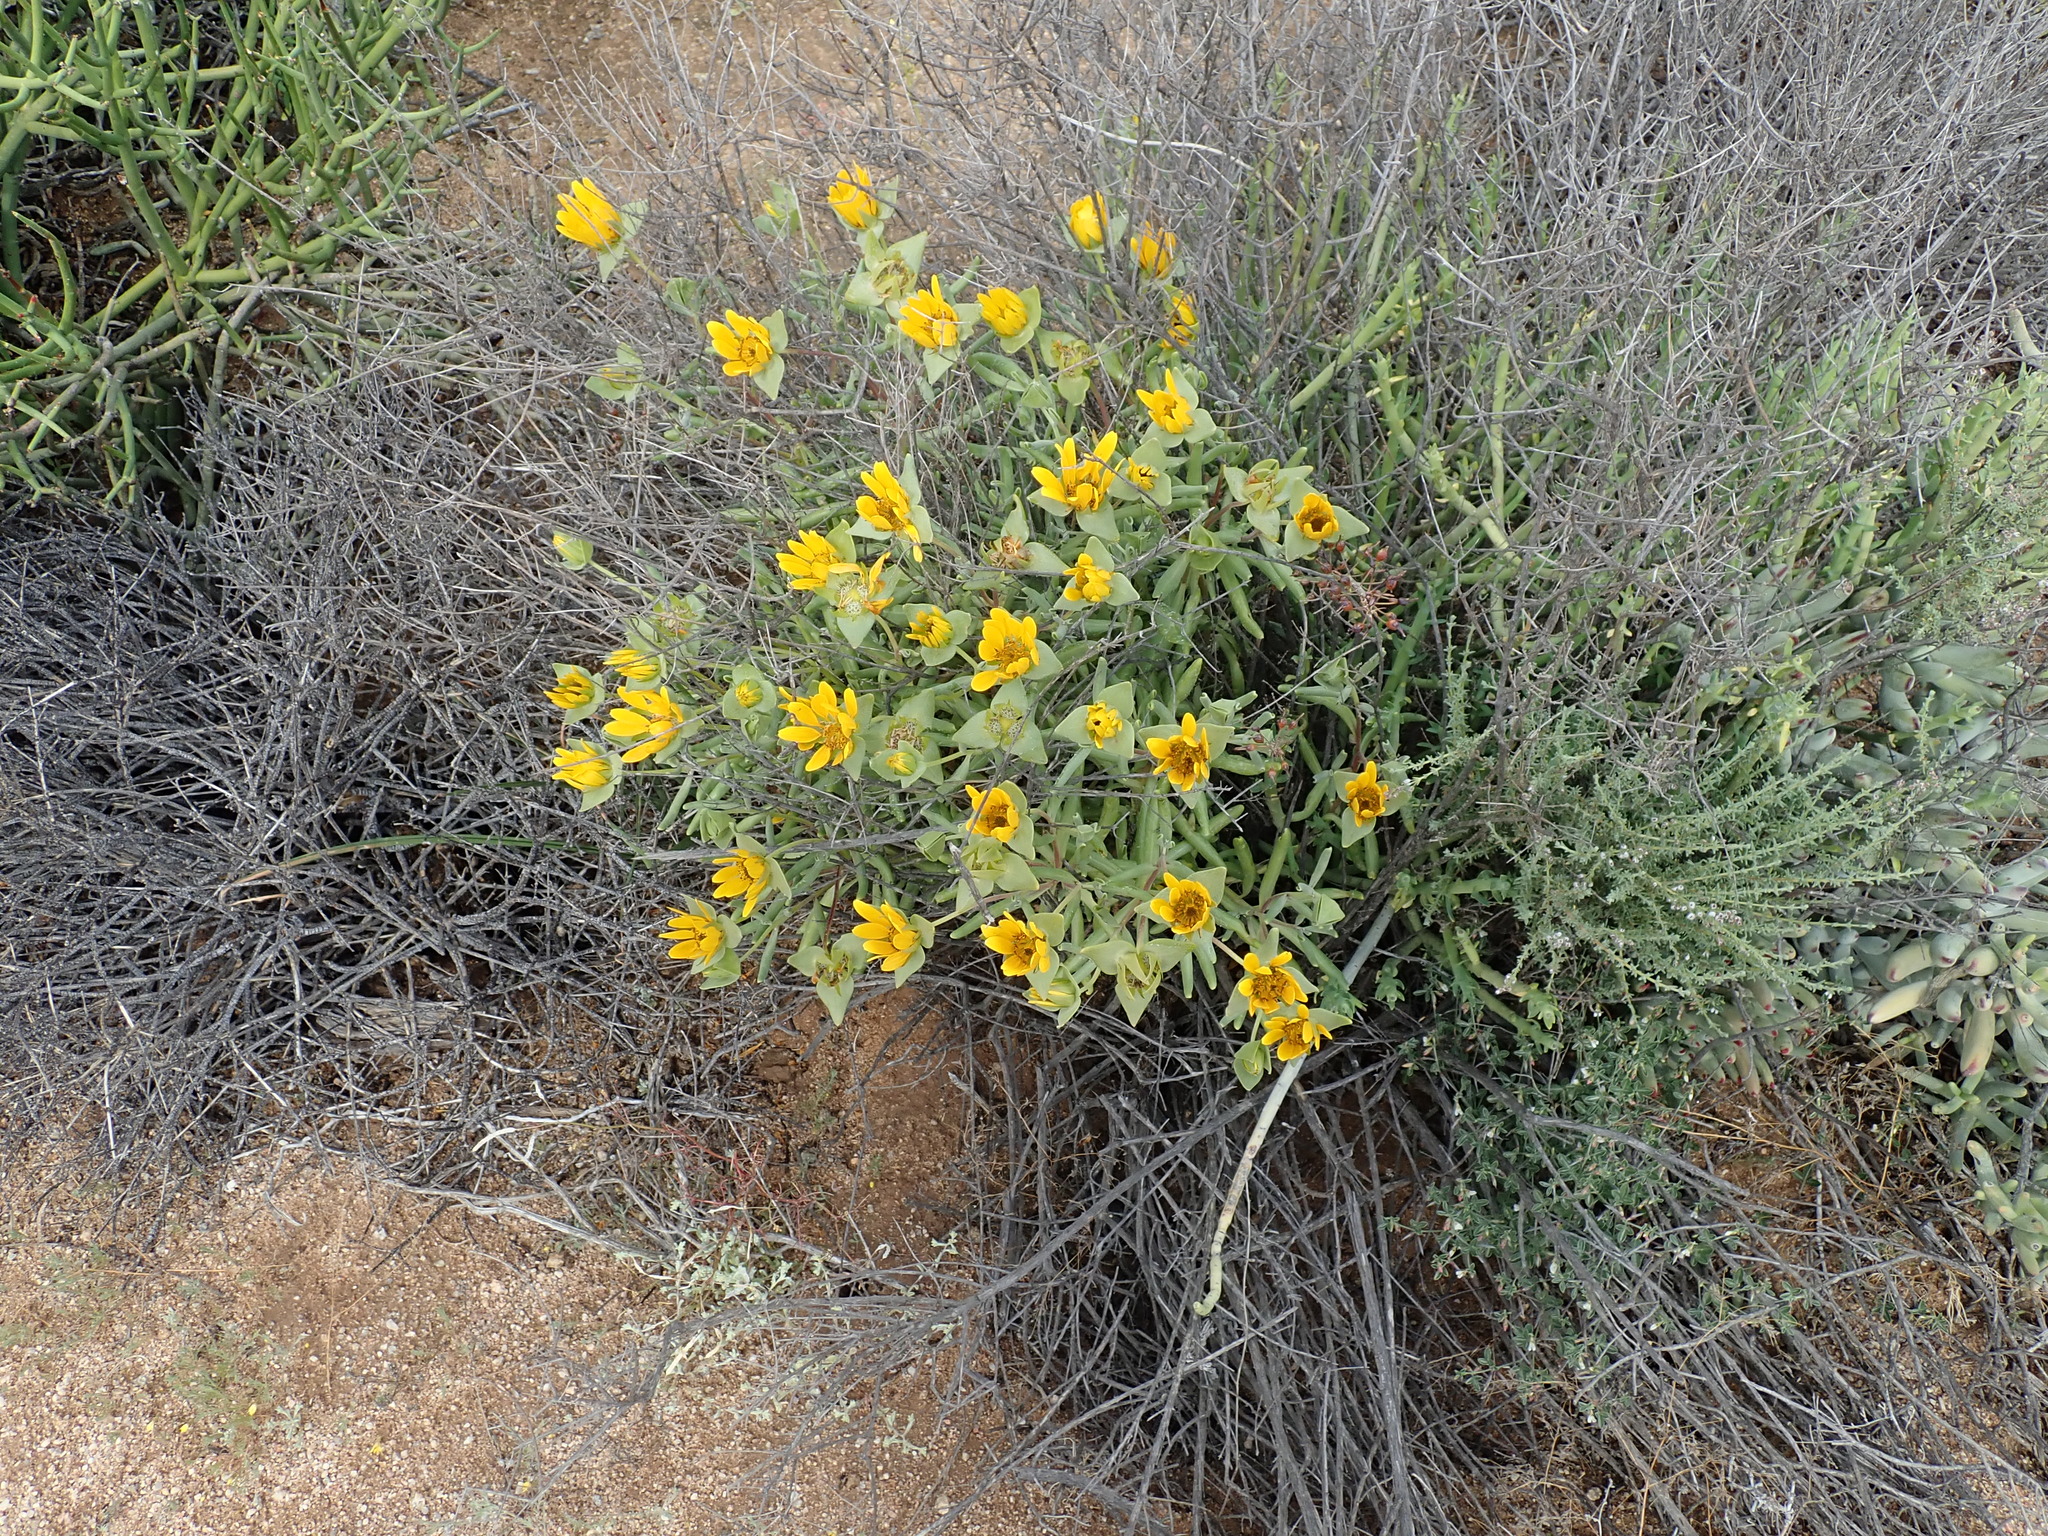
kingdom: Plantae
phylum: Tracheophyta
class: Magnoliopsida
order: Asterales
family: Asteraceae
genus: Didelta
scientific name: Didelta carnosa
